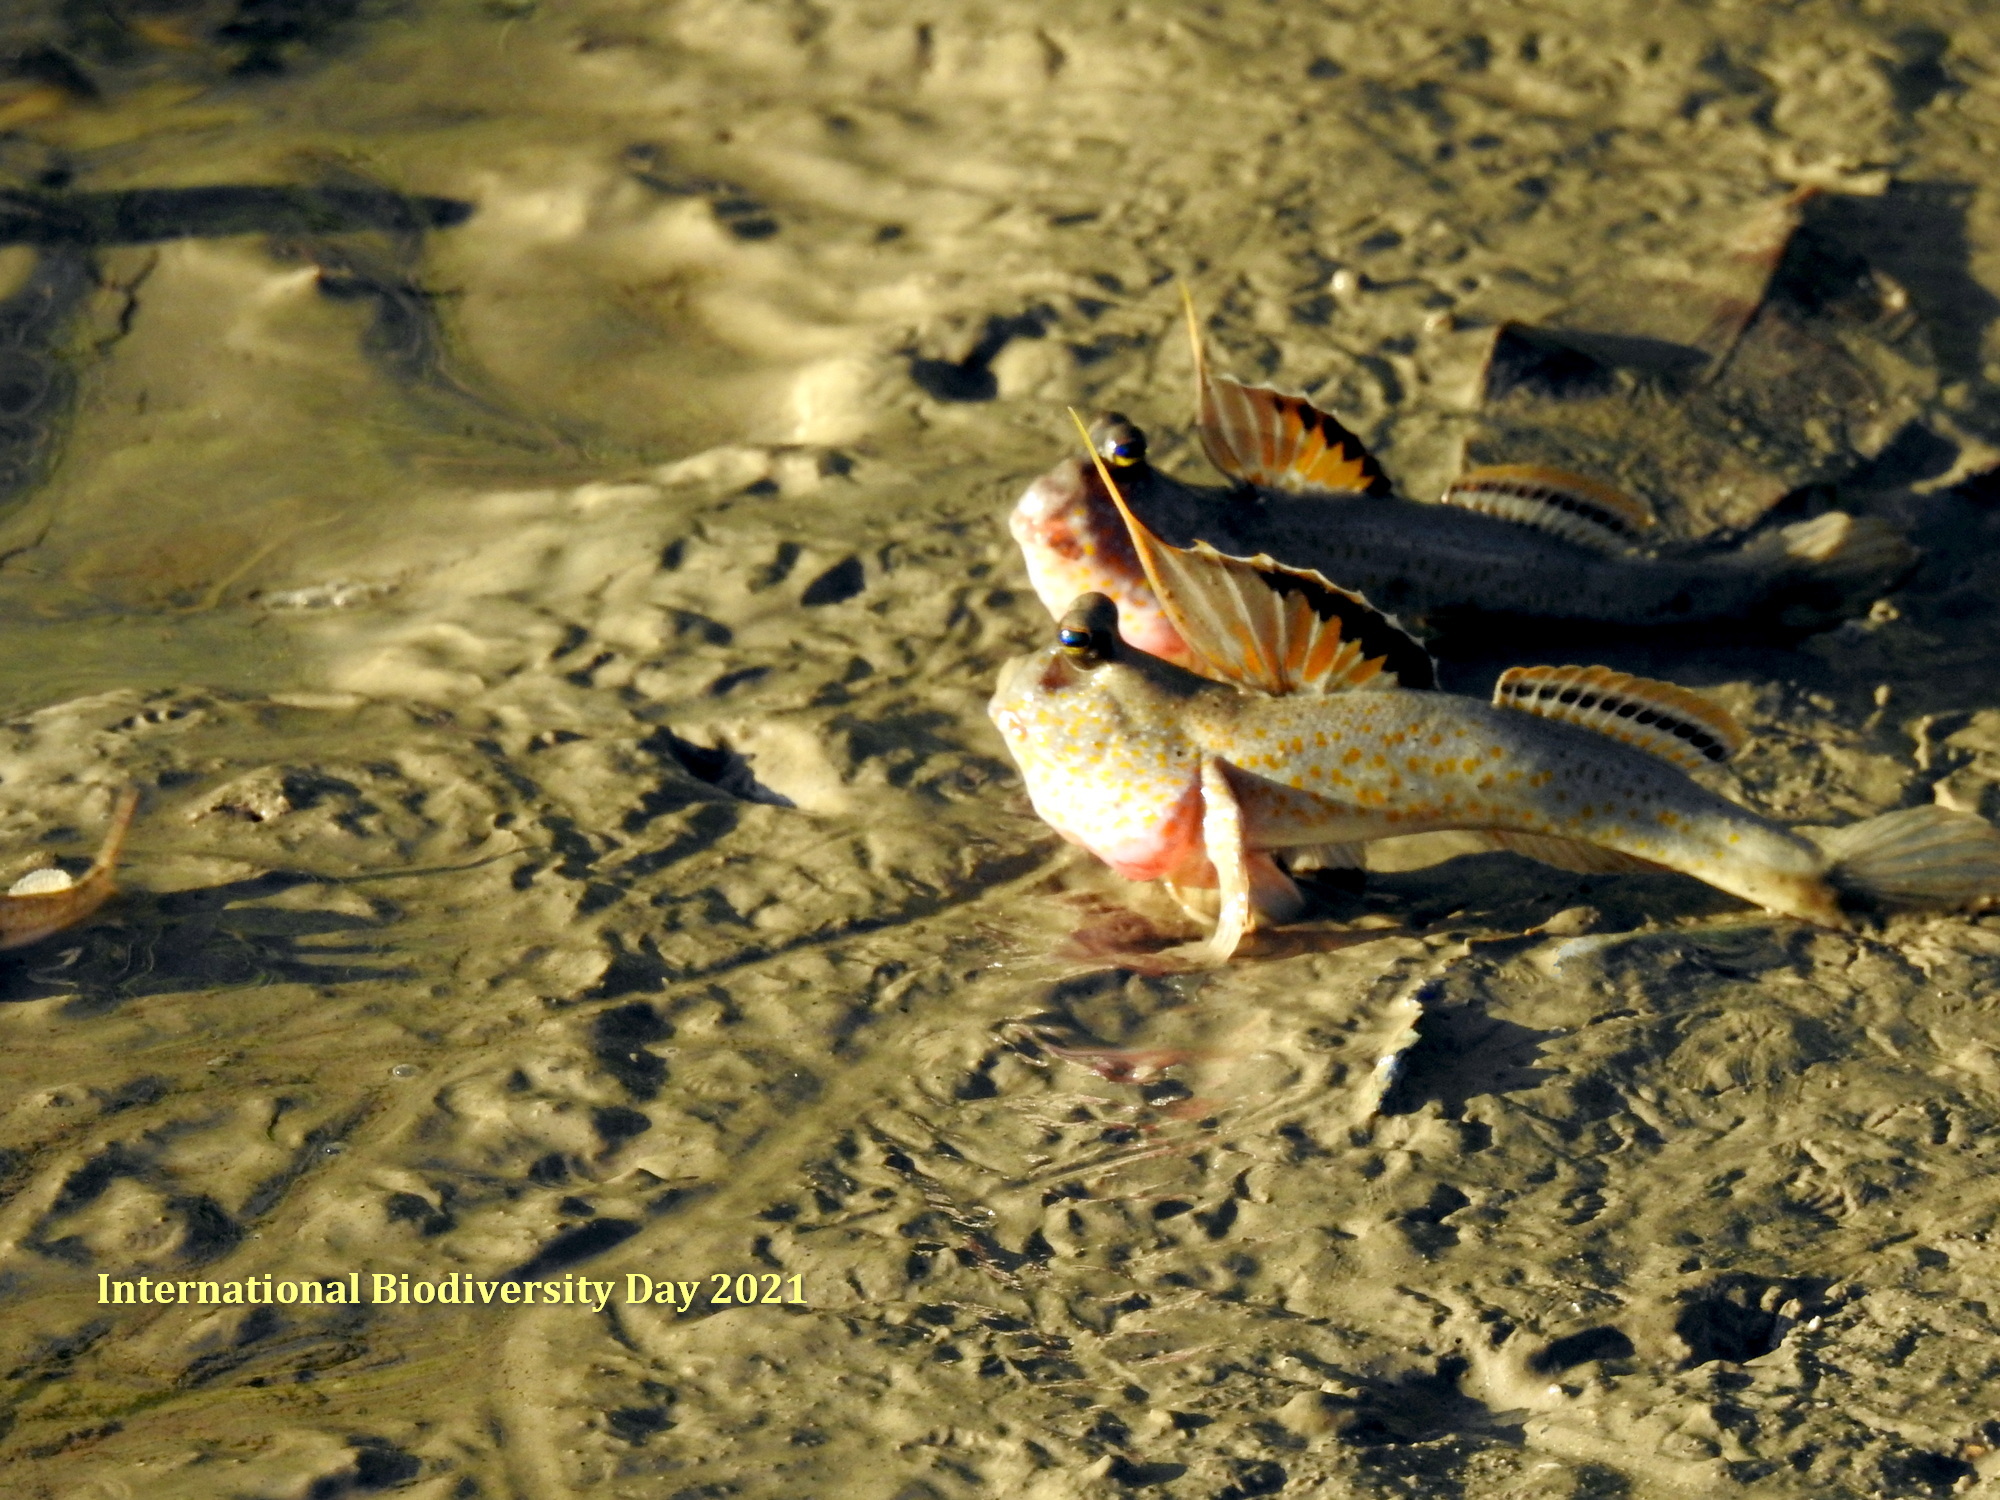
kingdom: Animalia
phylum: Chordata
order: Perciformes
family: Gobiidae
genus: Periophthalmus
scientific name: Periophthalmus chrysospilos
